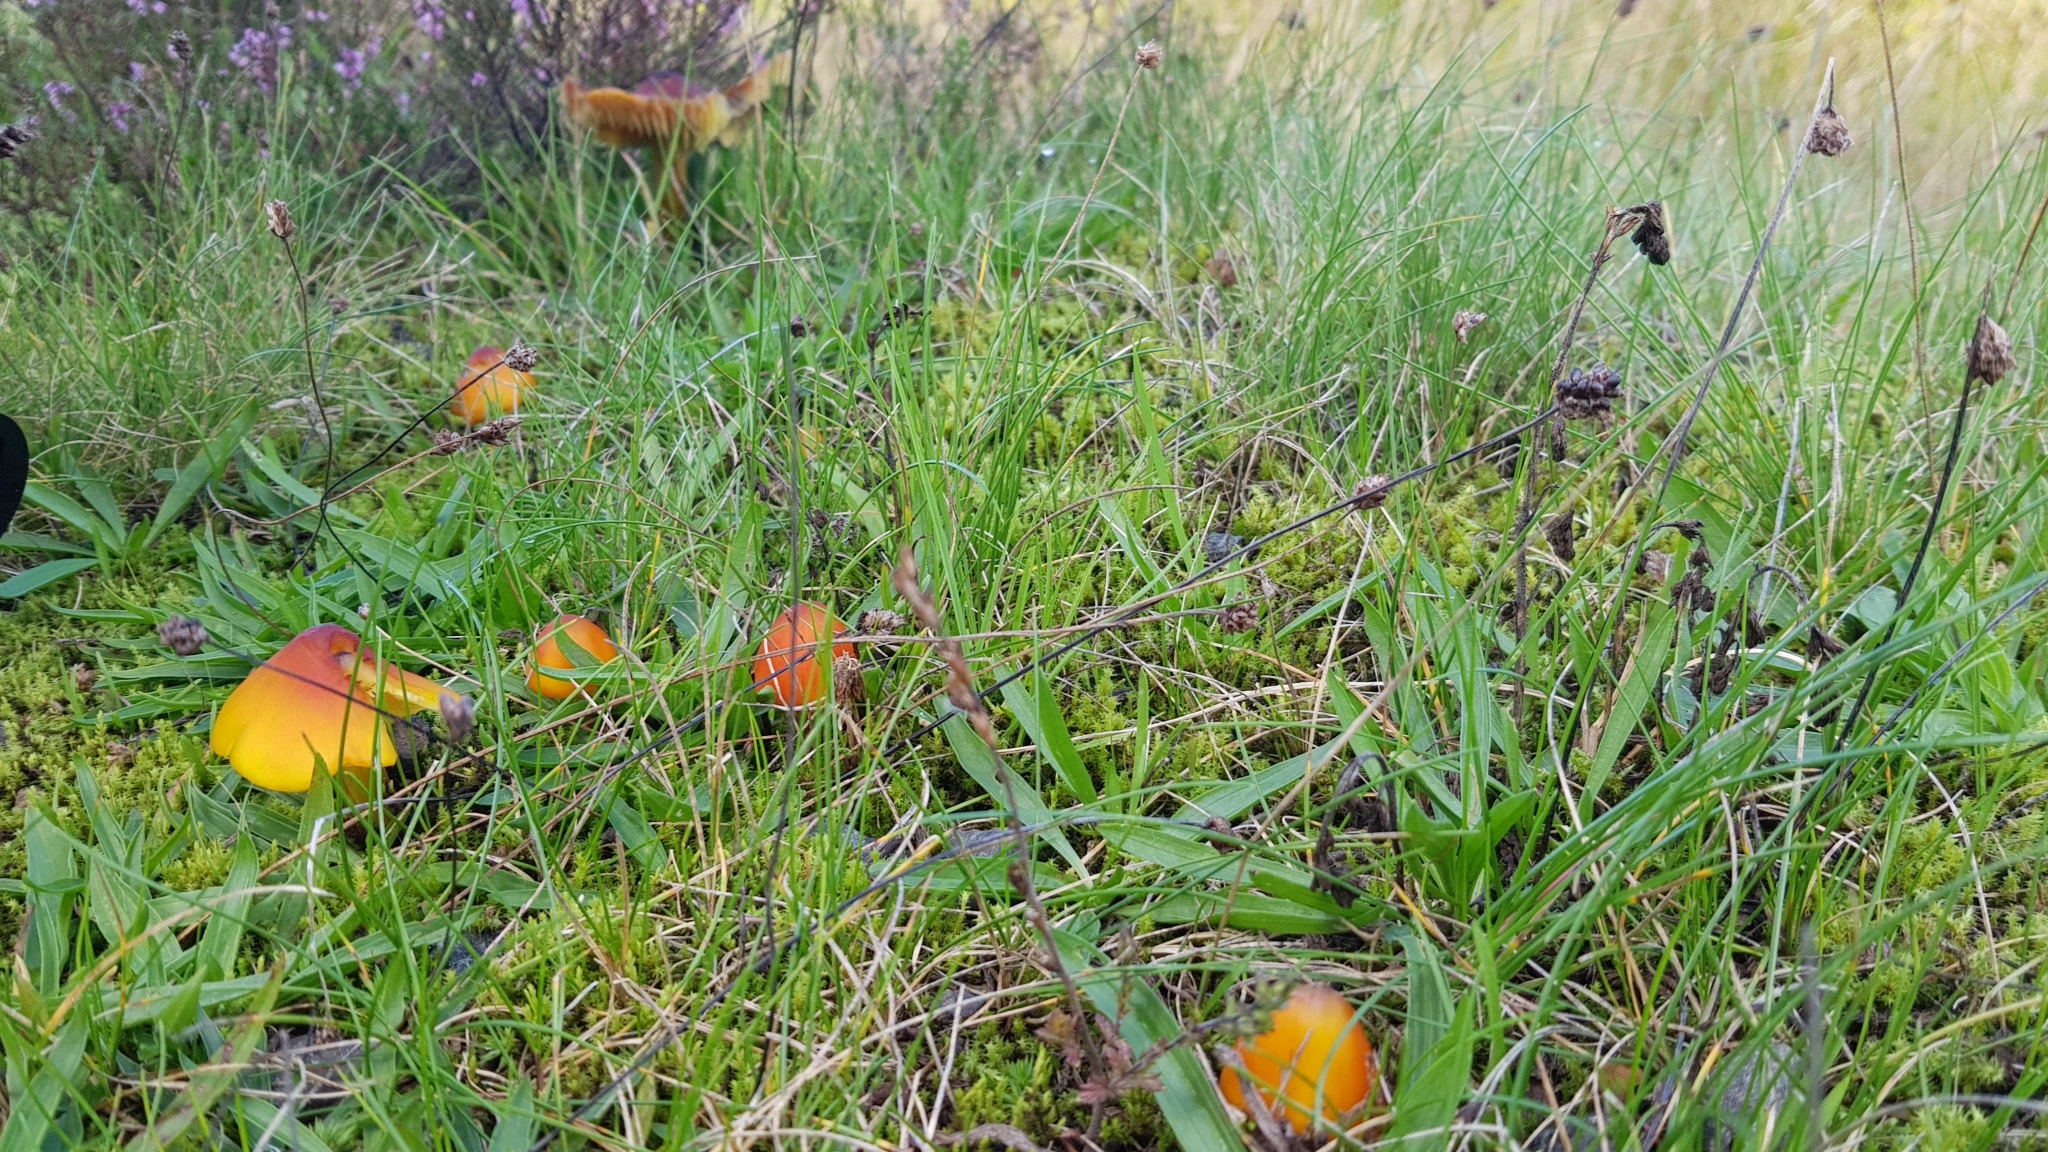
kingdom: Fungi
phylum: Basidiomycota
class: Agaricomycetes
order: Agaricales
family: Hygrophoraceae
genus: Hygrocybe
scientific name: Hygrocybe conica
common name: Blackening wax-cap
